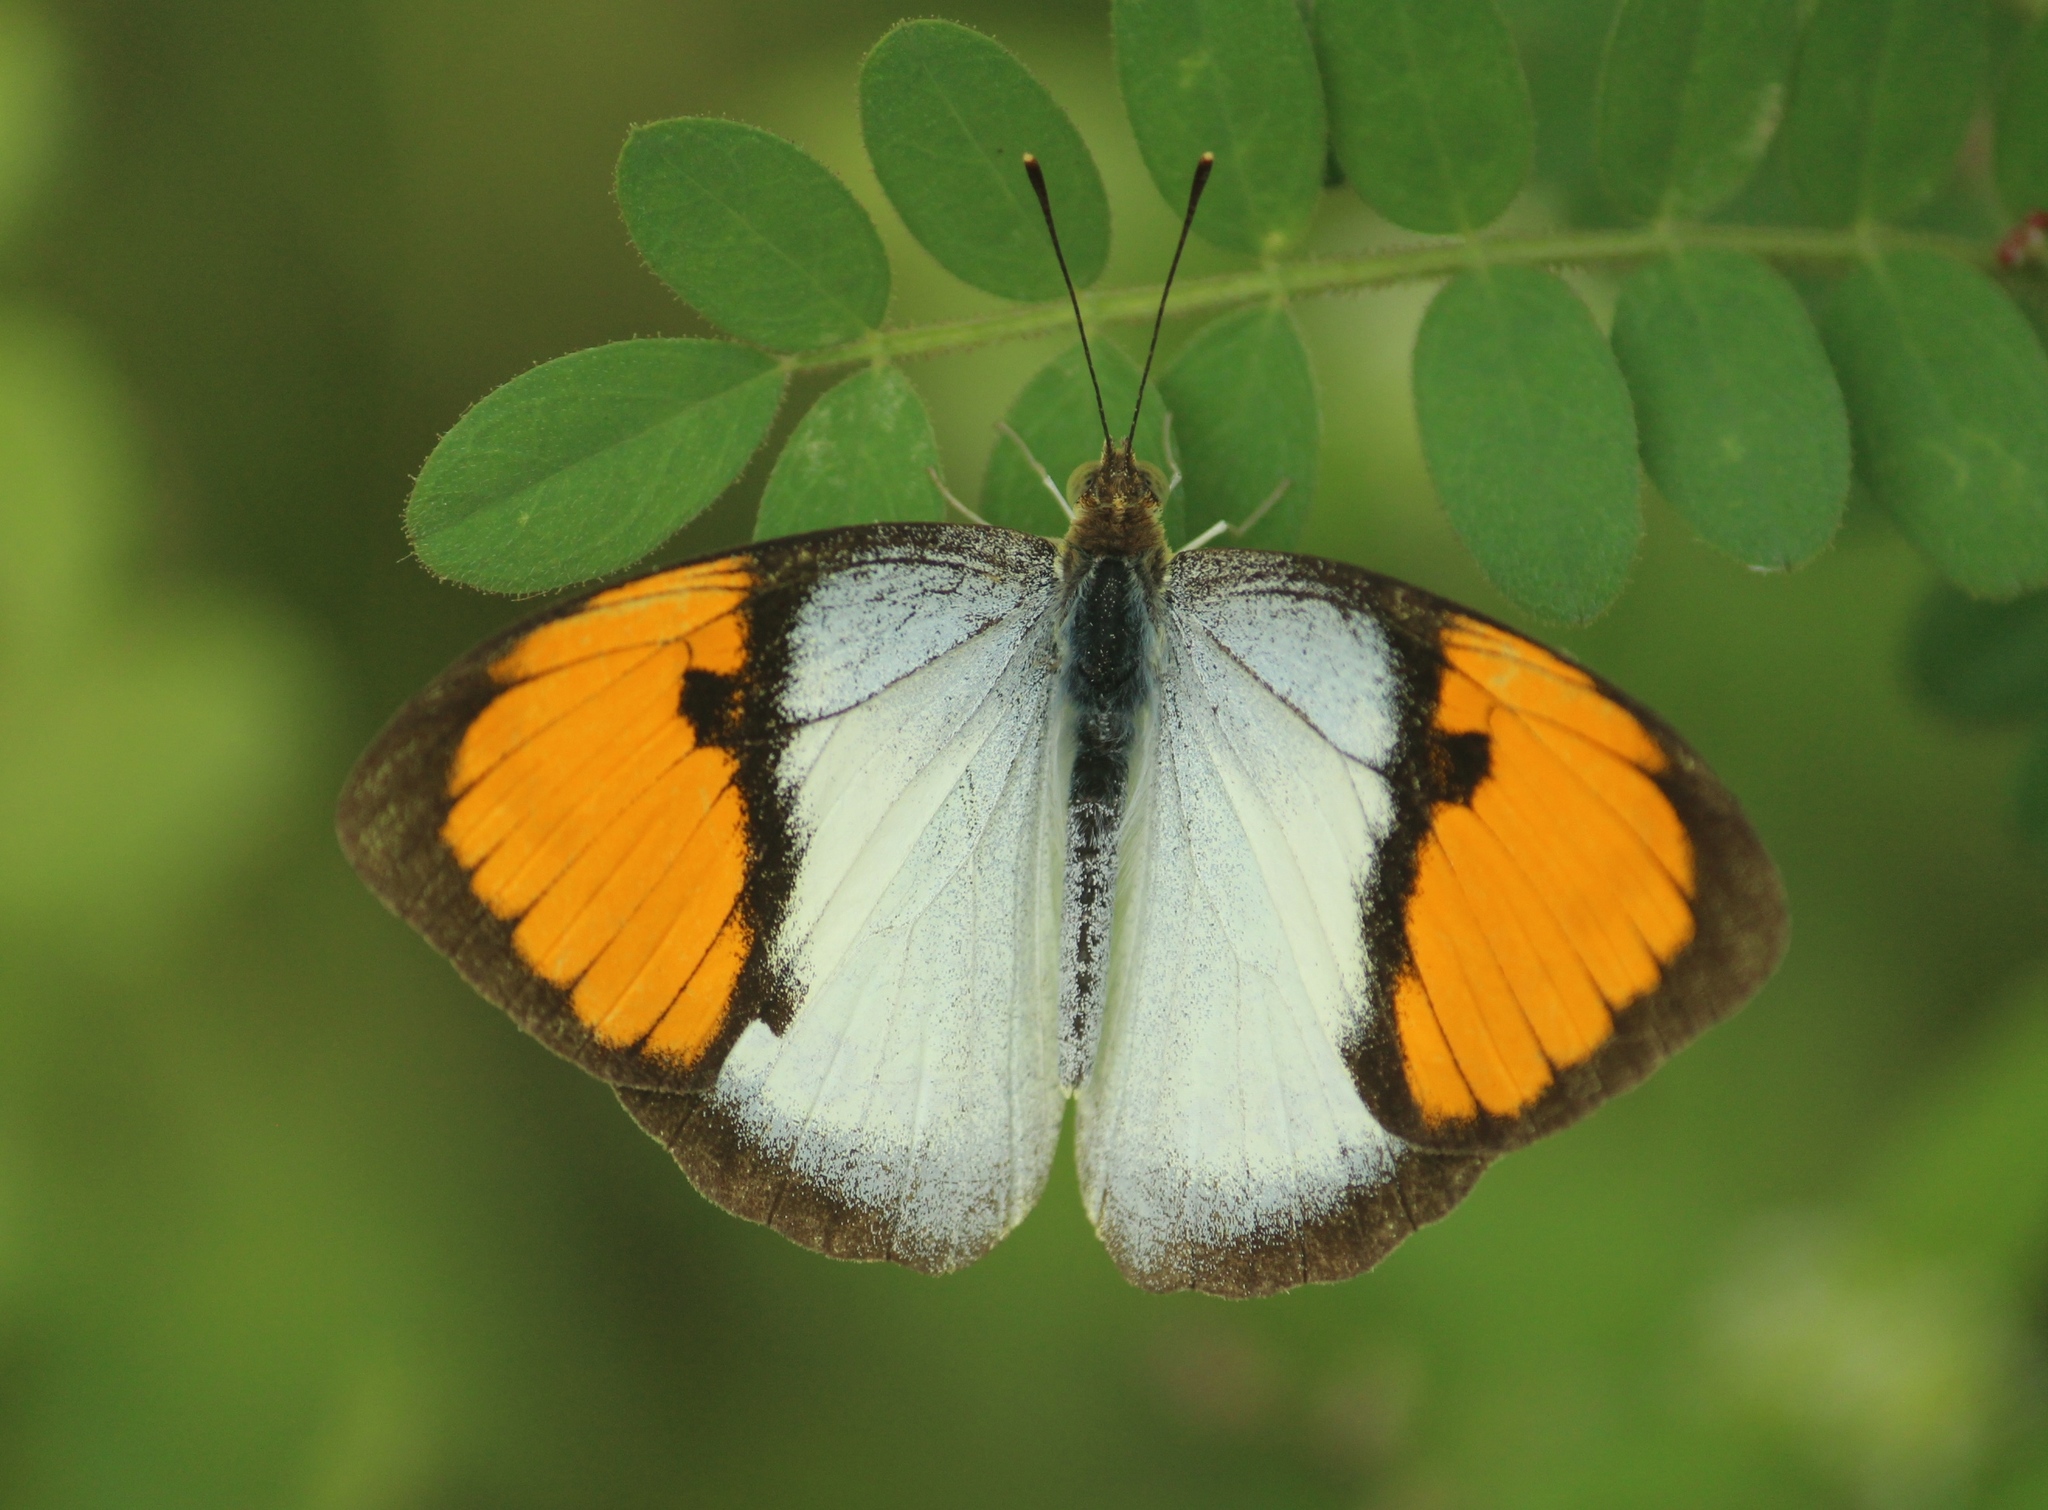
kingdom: Animalia
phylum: Arthropoda
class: Insecta
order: Lepidoptera
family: Pieridae
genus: Ixias
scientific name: Ixias marianne
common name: White orange tip
